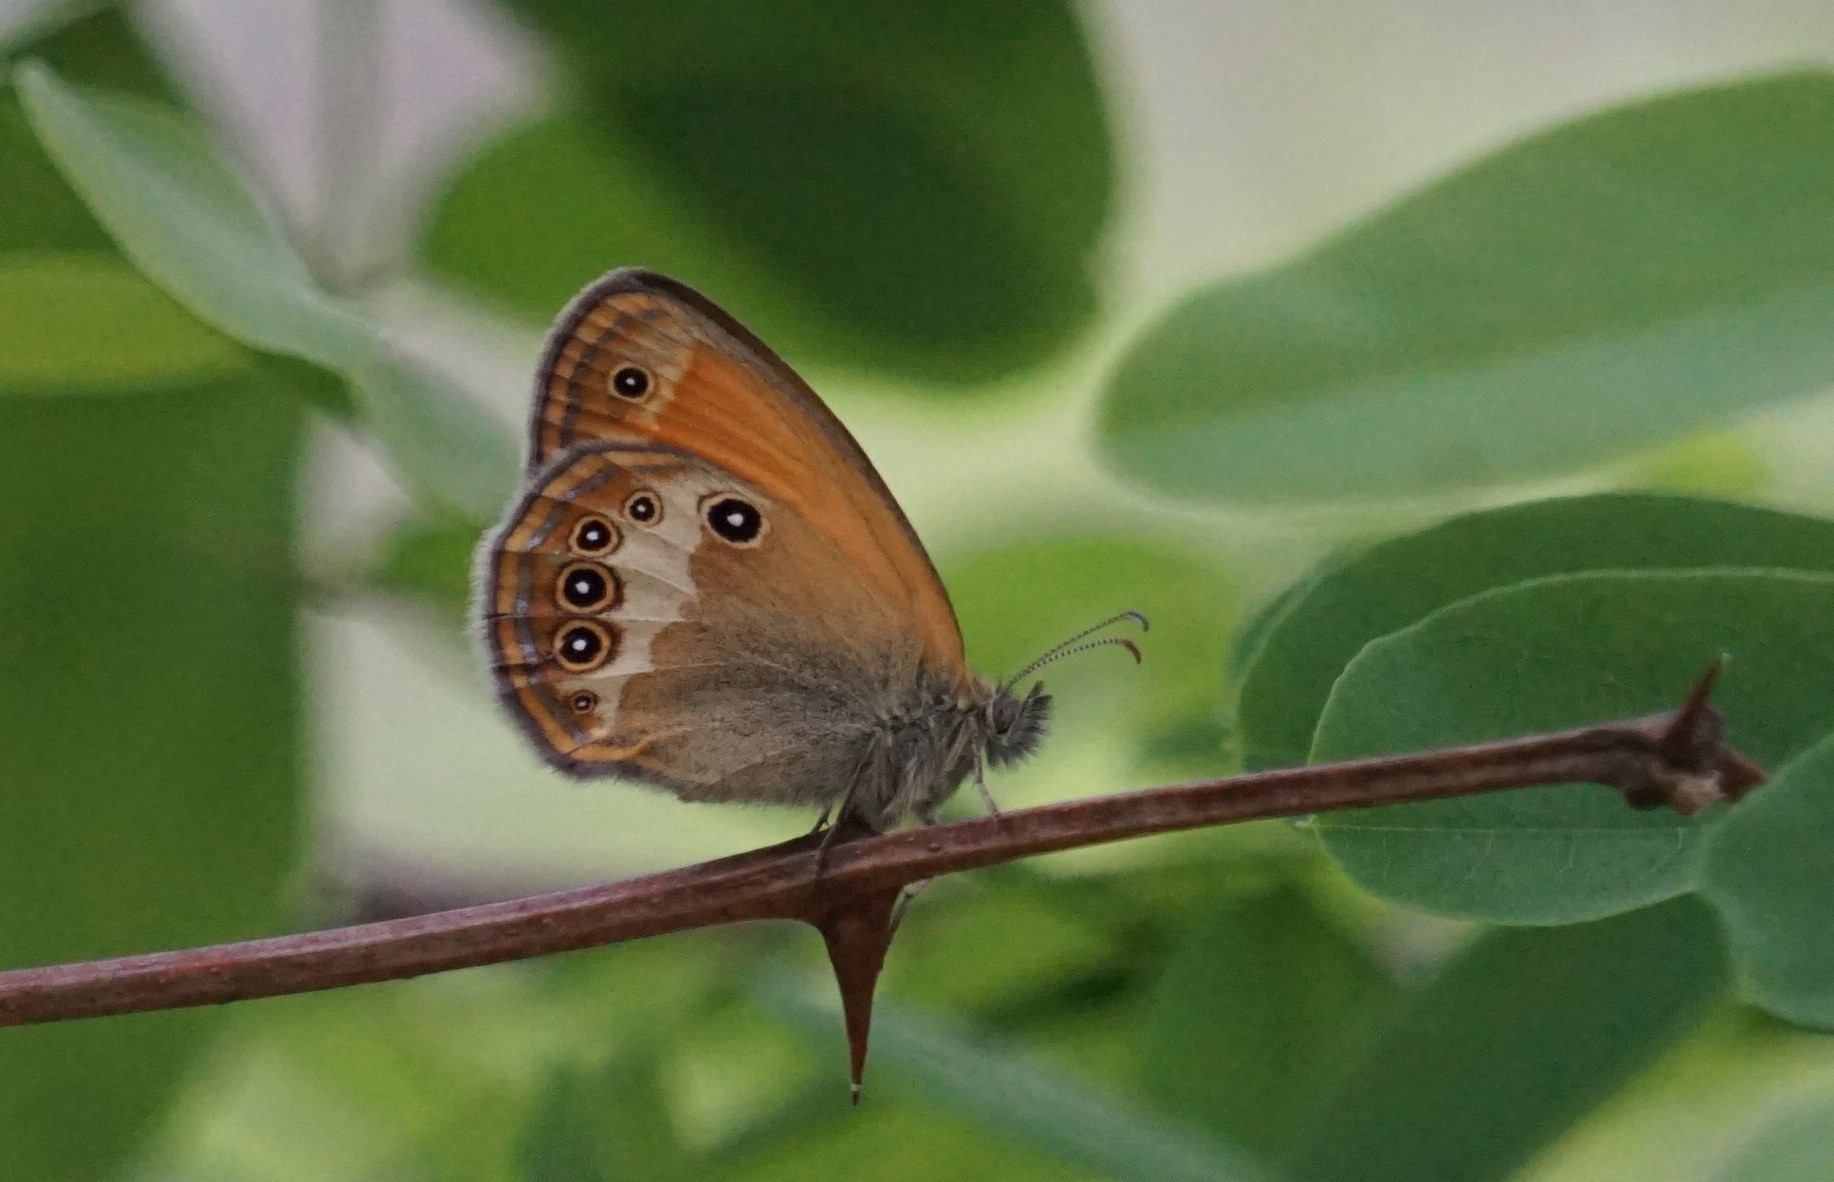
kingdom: Animalia
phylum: Arthropoda
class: Insecta
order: Lepidoptera
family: Nymphalidae
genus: Coenonympha
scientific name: Coenonympha arcania
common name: Pearly heath
